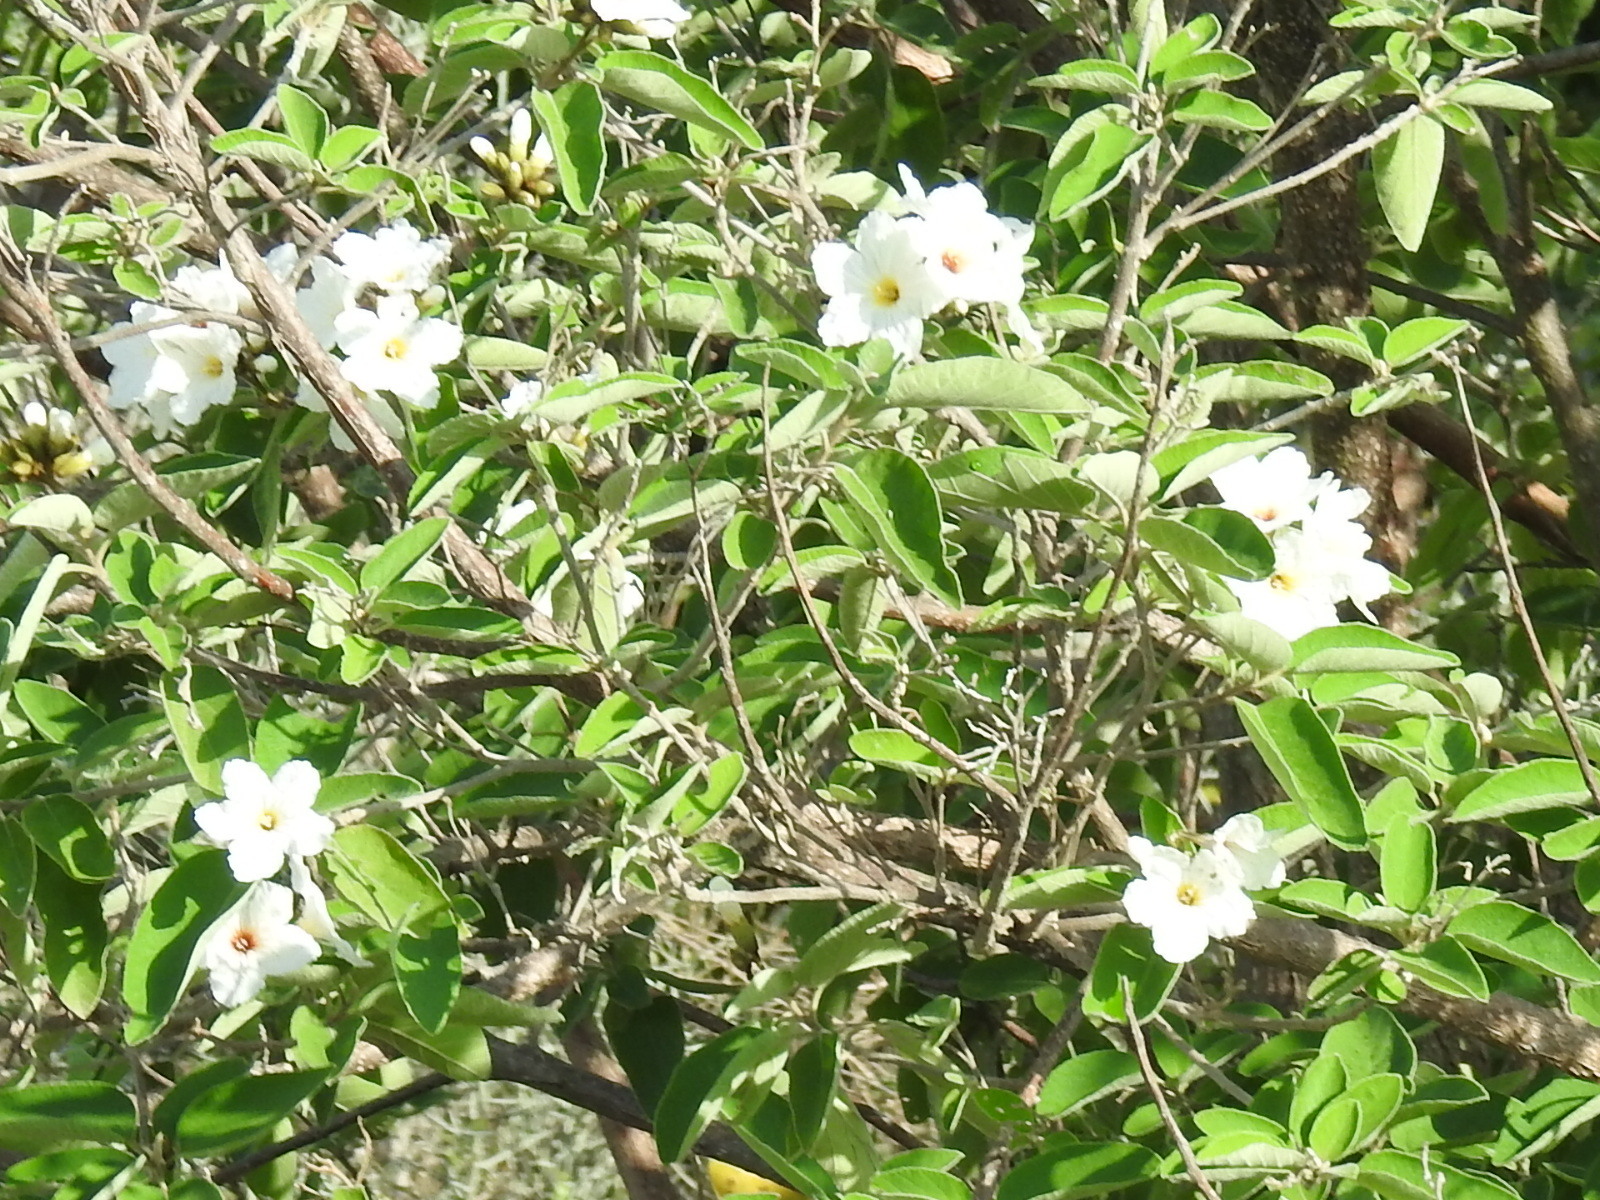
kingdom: Plantae
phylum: Tracheophyta
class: Magnoliopsida
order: Boraginales
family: Cordiaceae
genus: Cordia
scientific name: Cordia boissieri
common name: Mexican-olive
